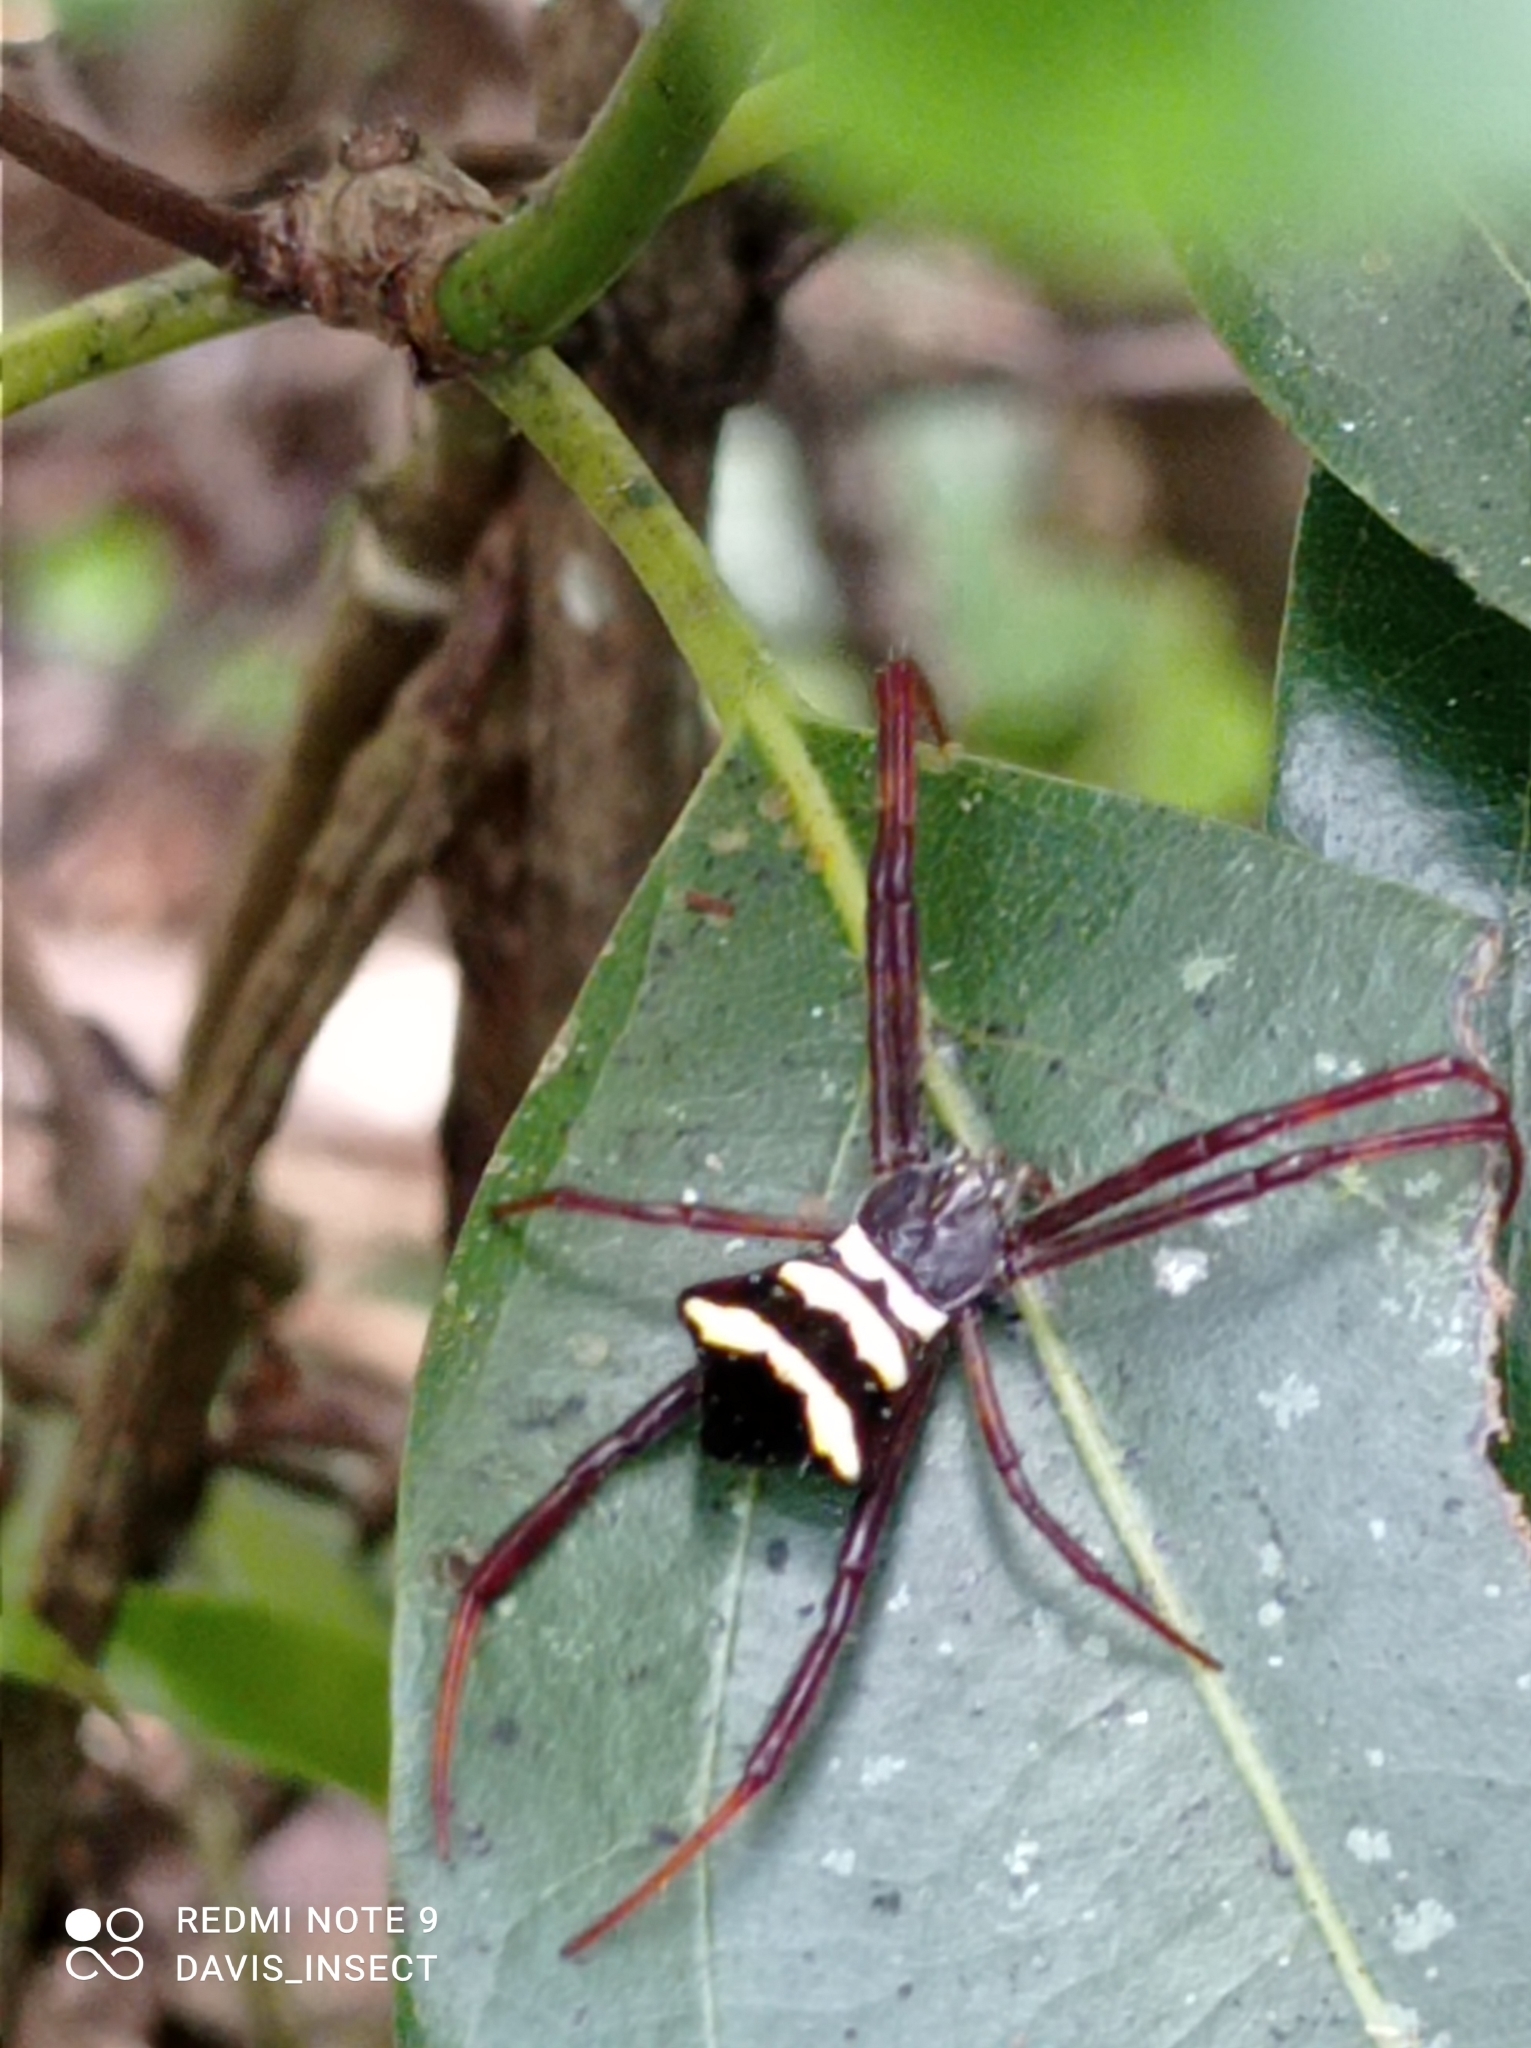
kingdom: Animalia
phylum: Arthropoda
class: Arachnida
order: Araneae
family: Araneidae
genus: Argiope
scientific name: Argiope reinwardti
